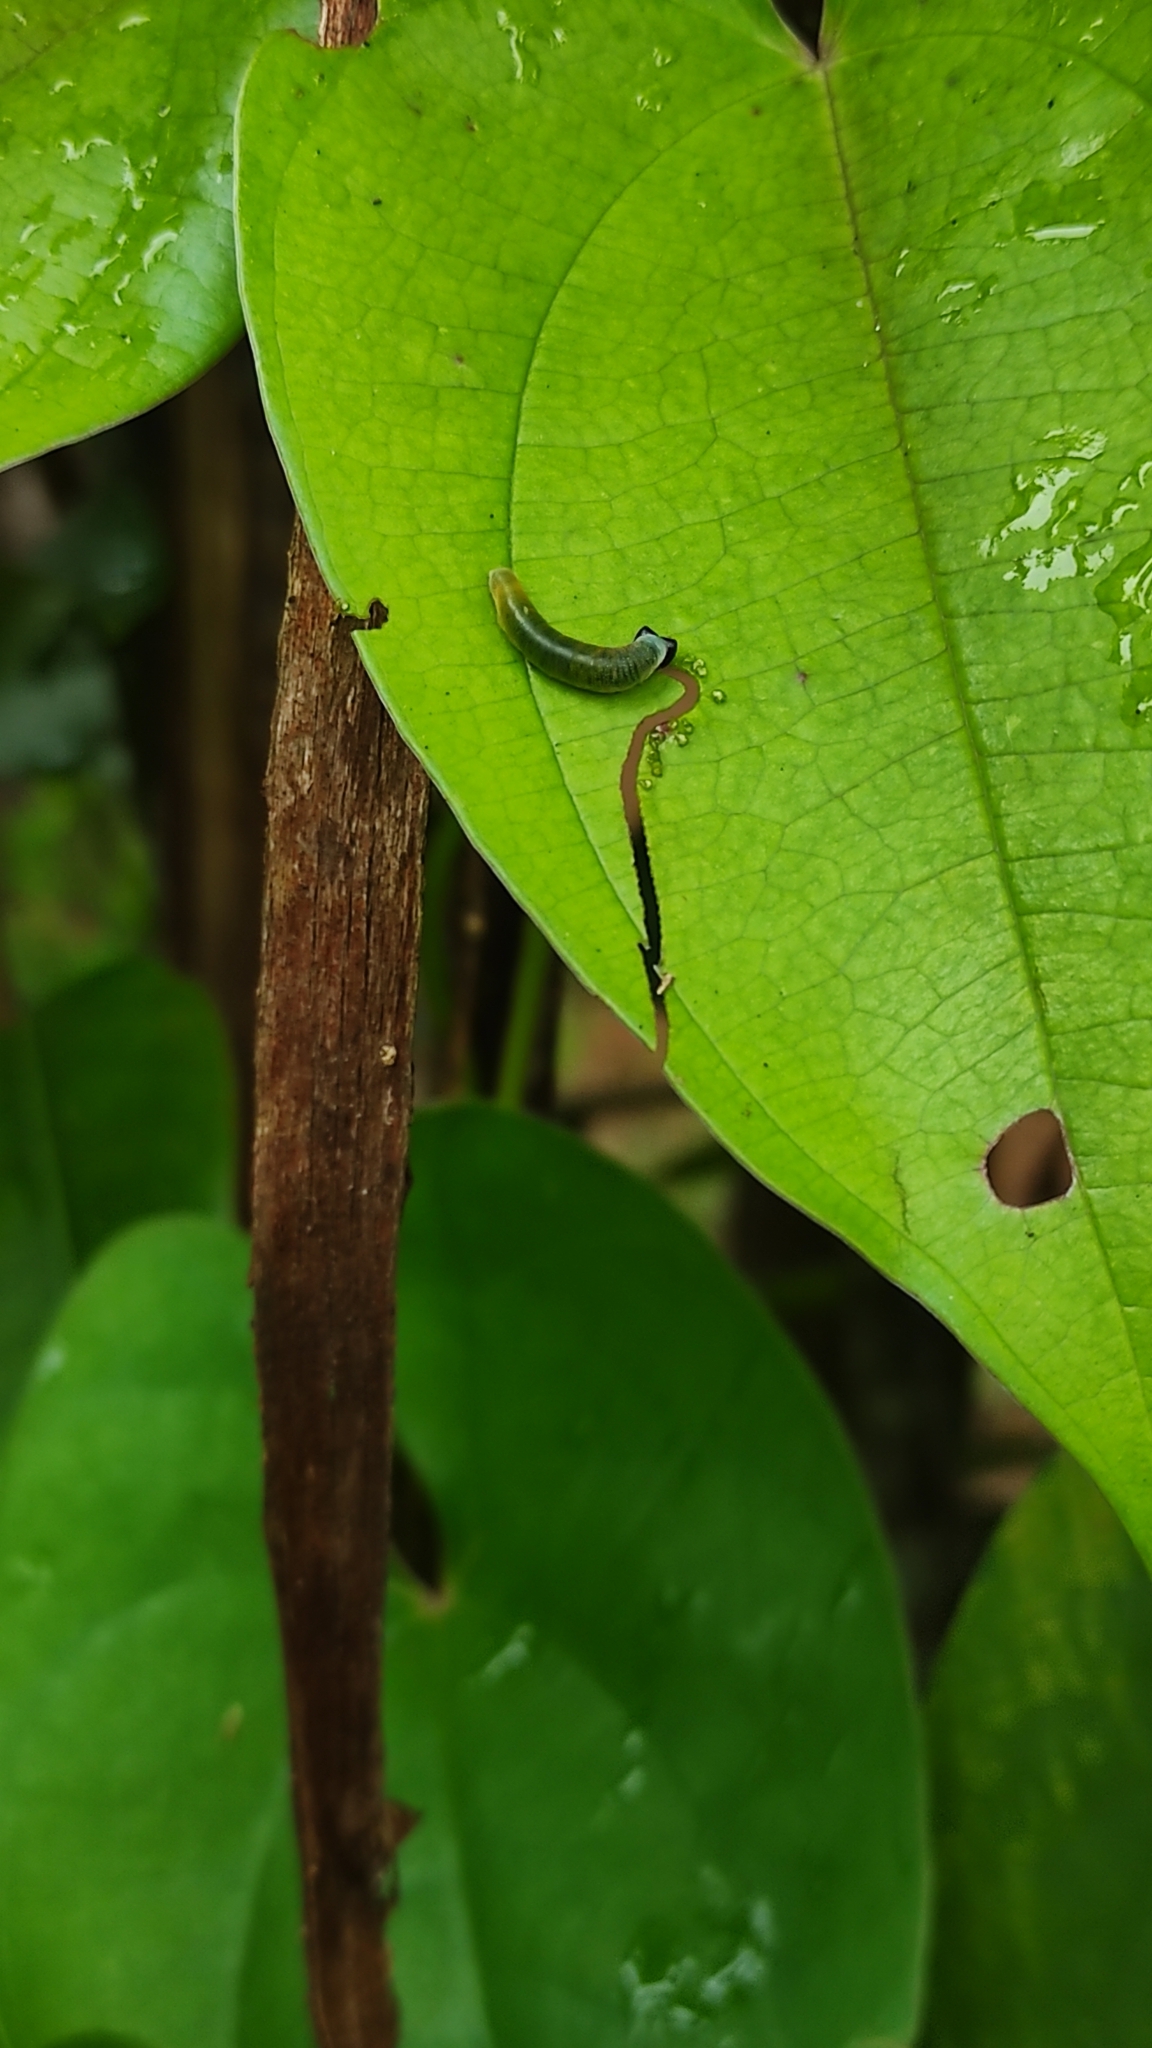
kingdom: Animalia
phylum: Arthropoda
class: Insecta
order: Lepidoptera
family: Hesperiidae
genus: Tagiades
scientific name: Tagiades litigiosa
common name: Water snow flat
